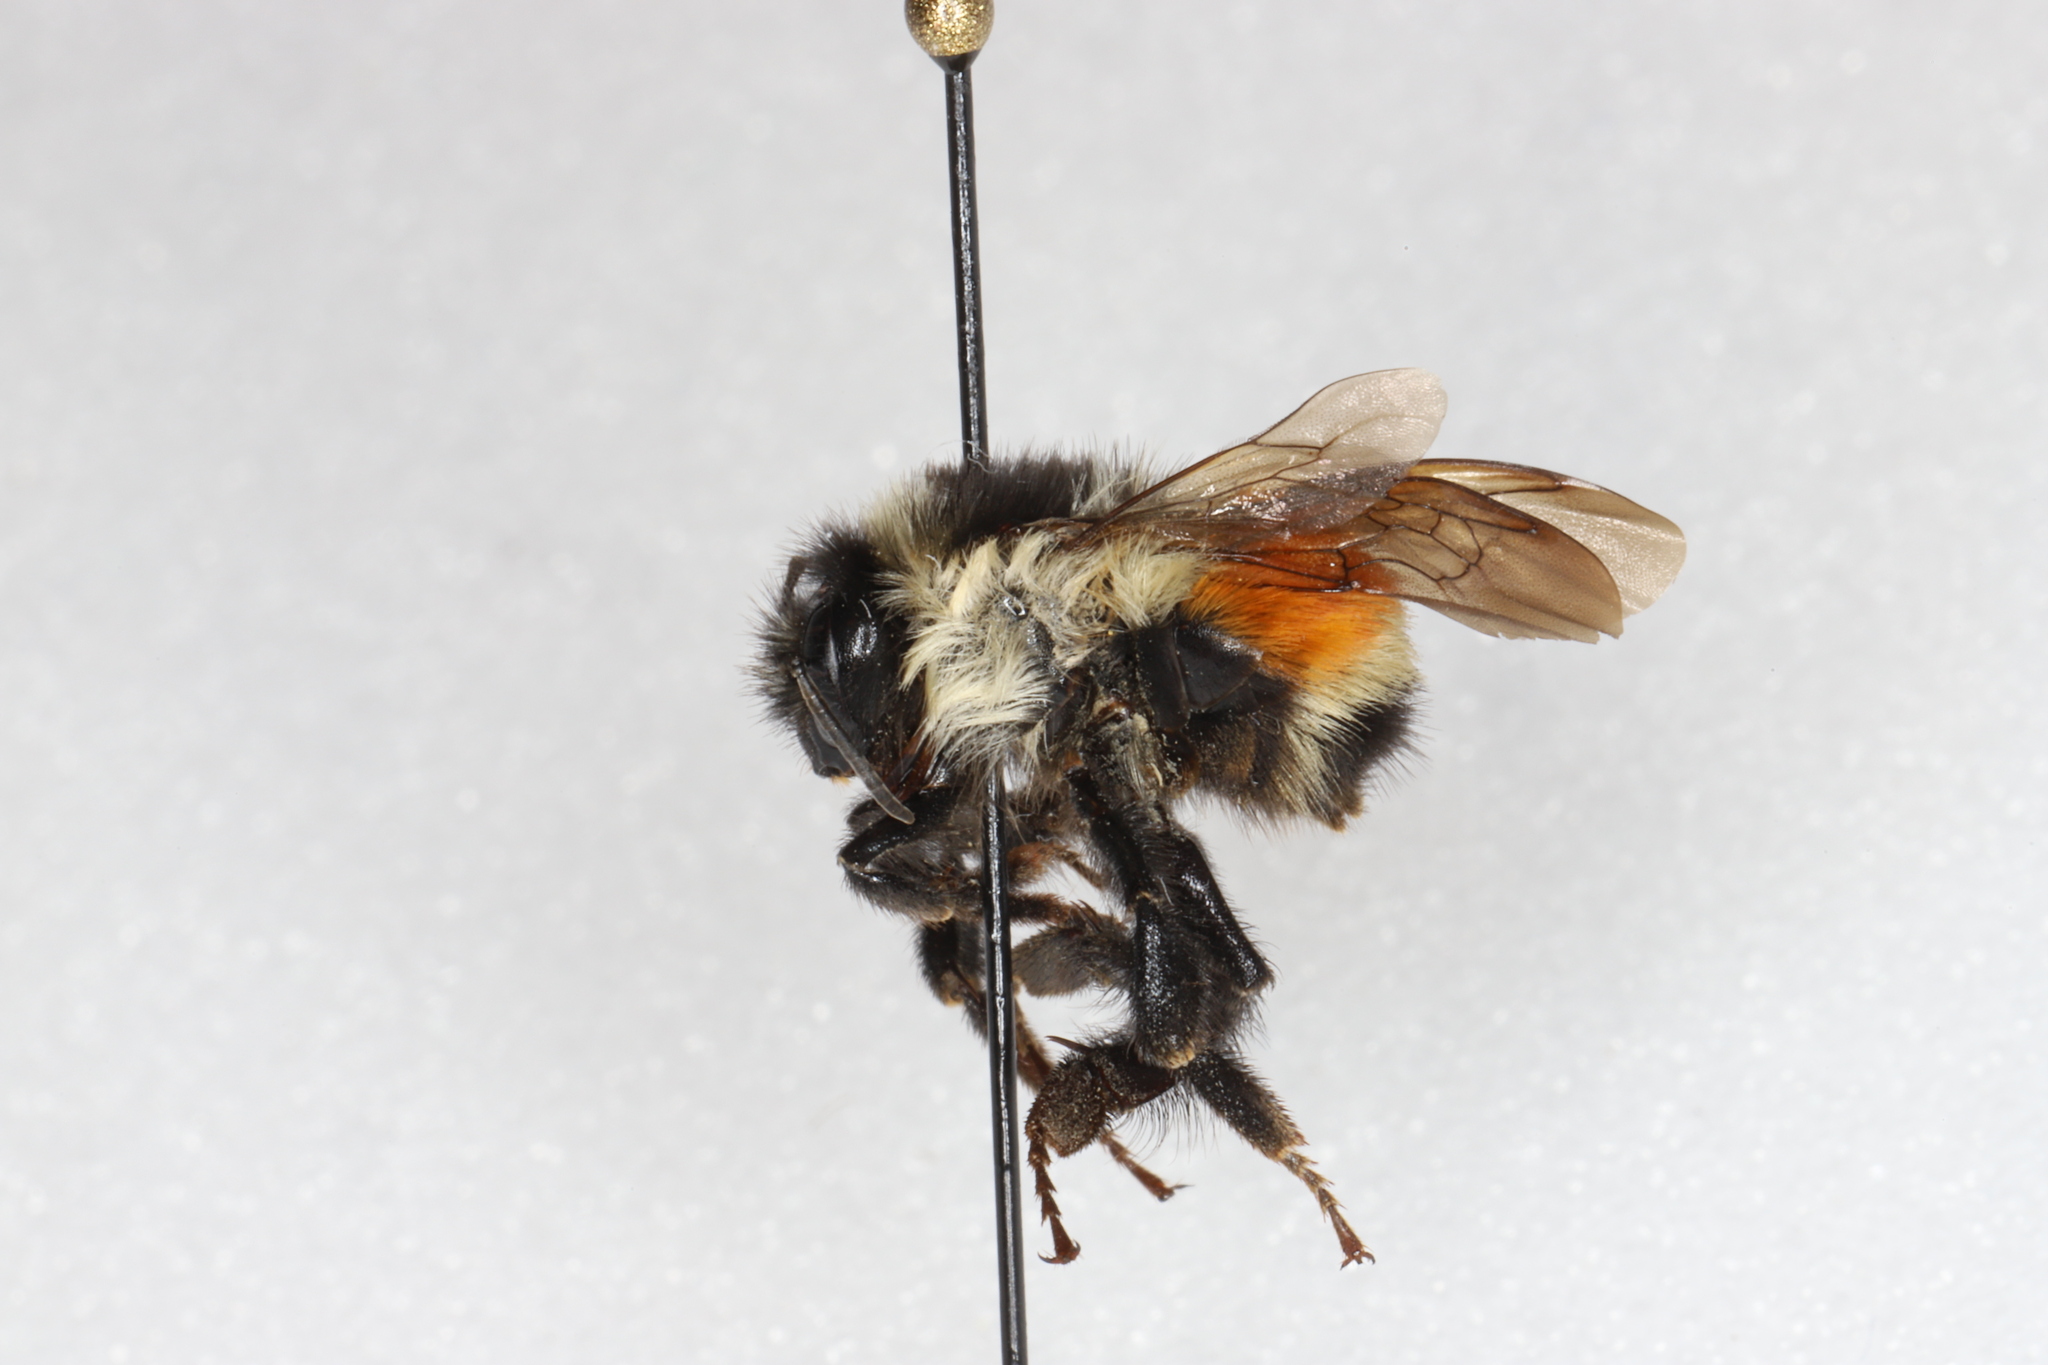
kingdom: Animalia
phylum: Arthropoda
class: Insecta
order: Hymenoptera
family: Apidae
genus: Bombus
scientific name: Bombus ternarius
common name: Tri-colored bumble bee
